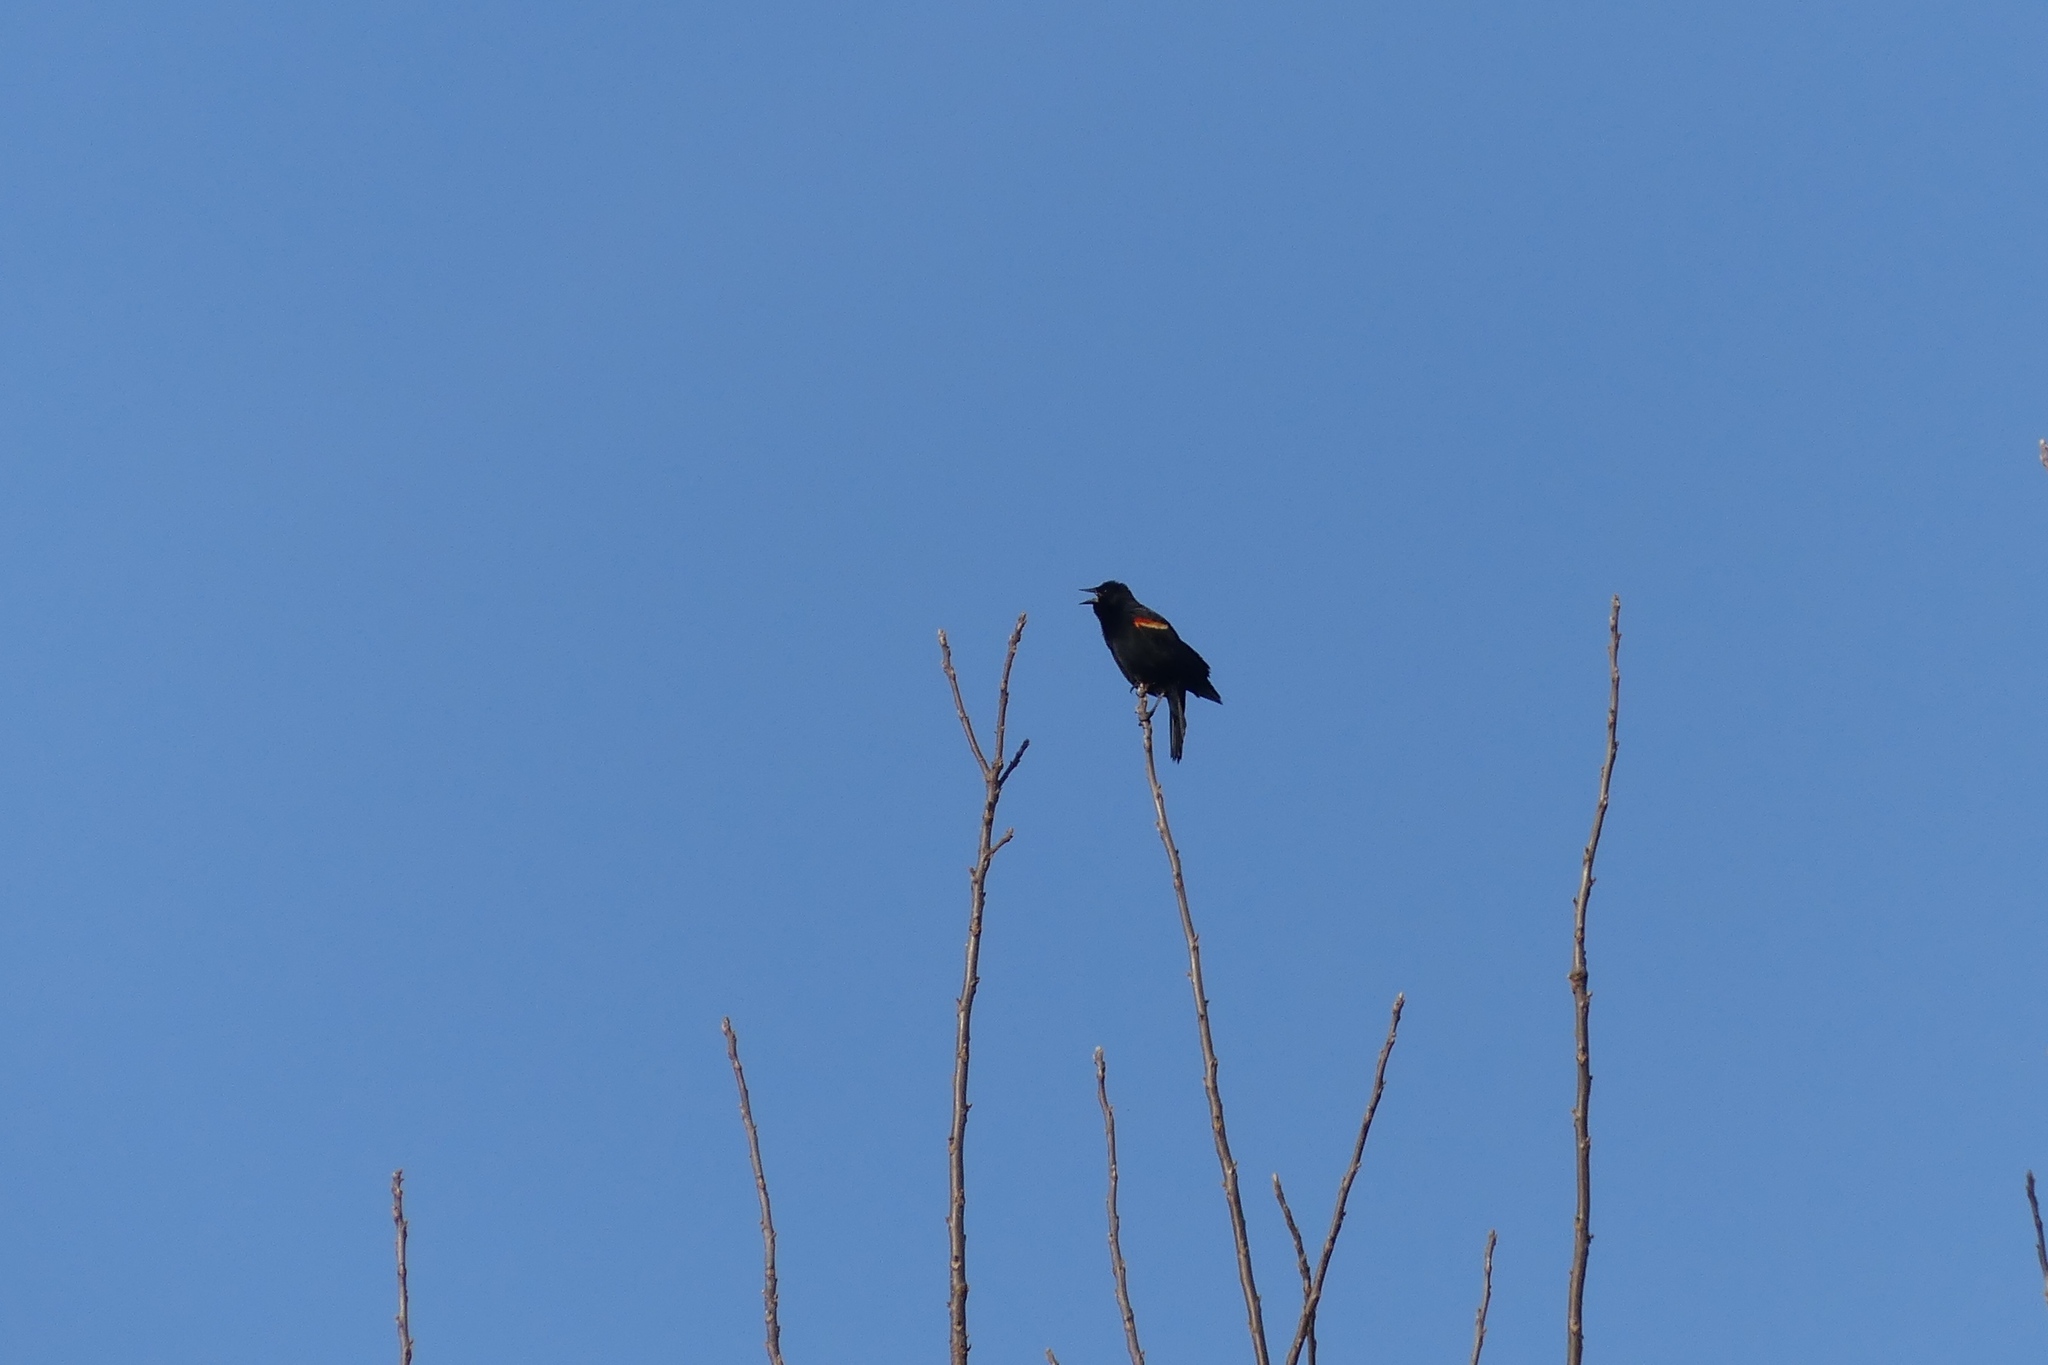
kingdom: Animalia
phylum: Chordata
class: Aves
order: Passeriformes
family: Icteridae
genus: Agelaius
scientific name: Agelaius phoeniceus
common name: Red-winged blackbird
